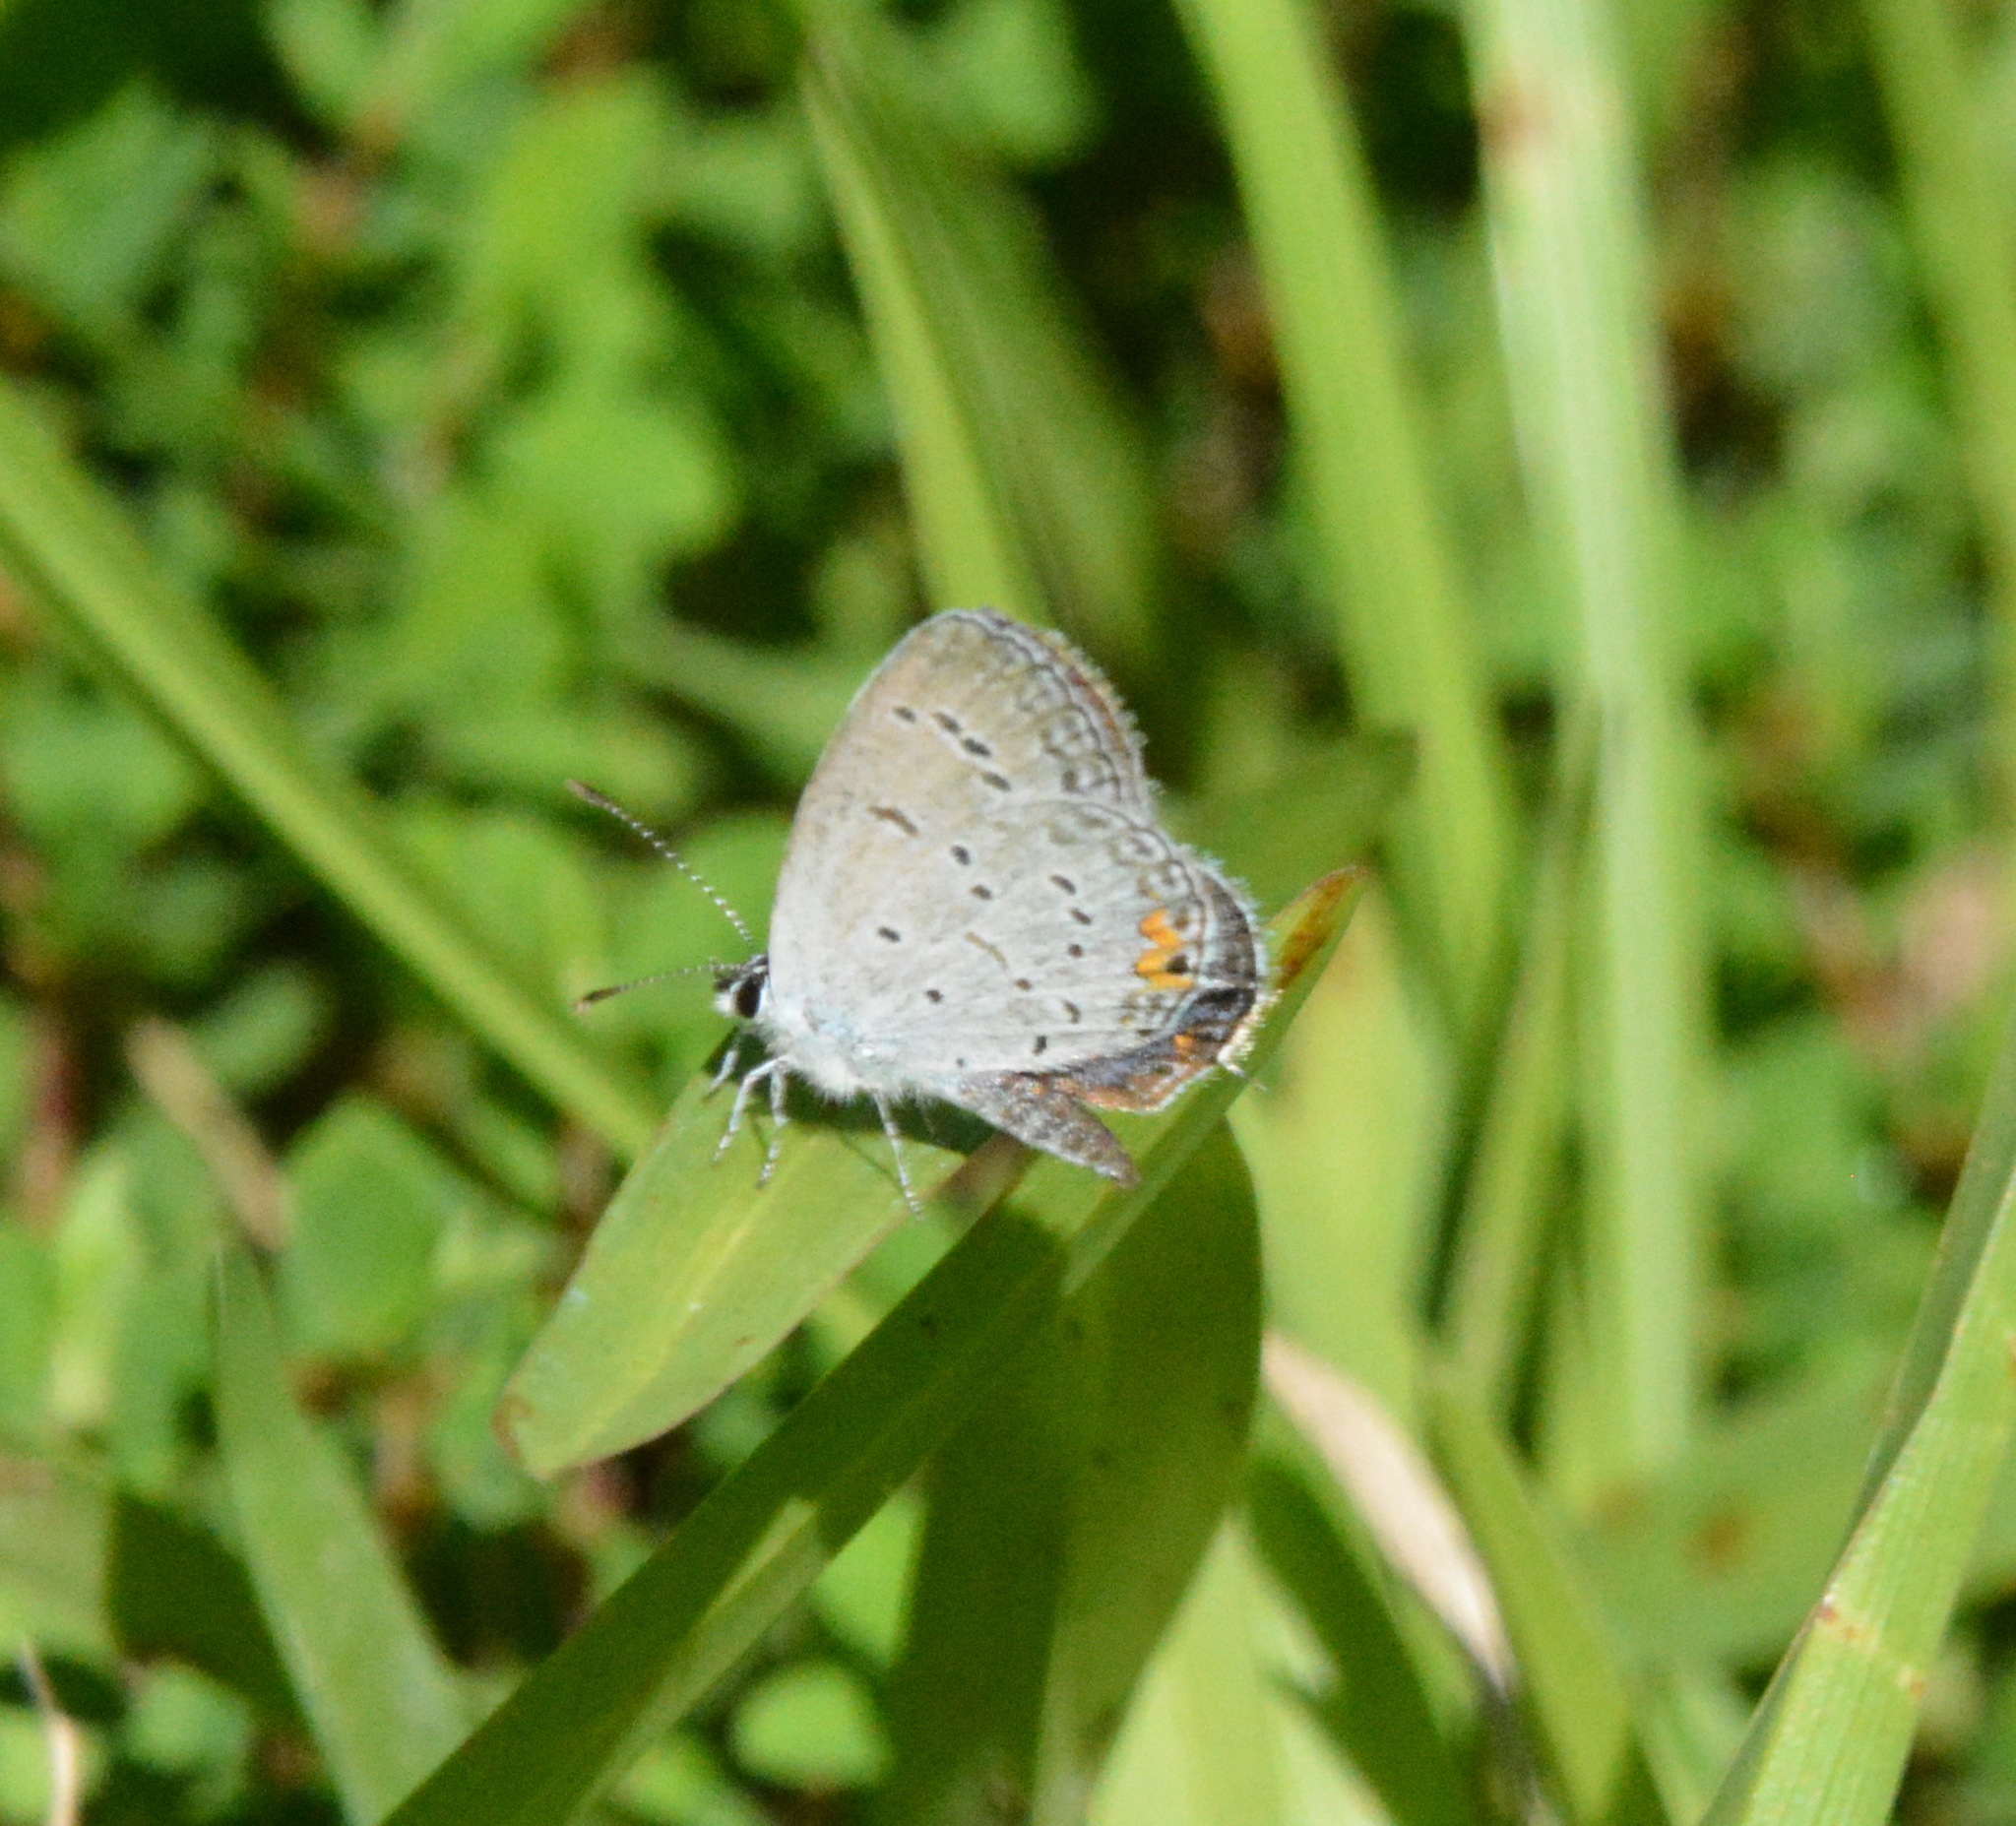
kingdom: Animalia
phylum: Arthropoda
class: Insecta
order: Lepidoptera
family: Lycaenidae
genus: Elkalyce
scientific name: Elkalyce comyntas
